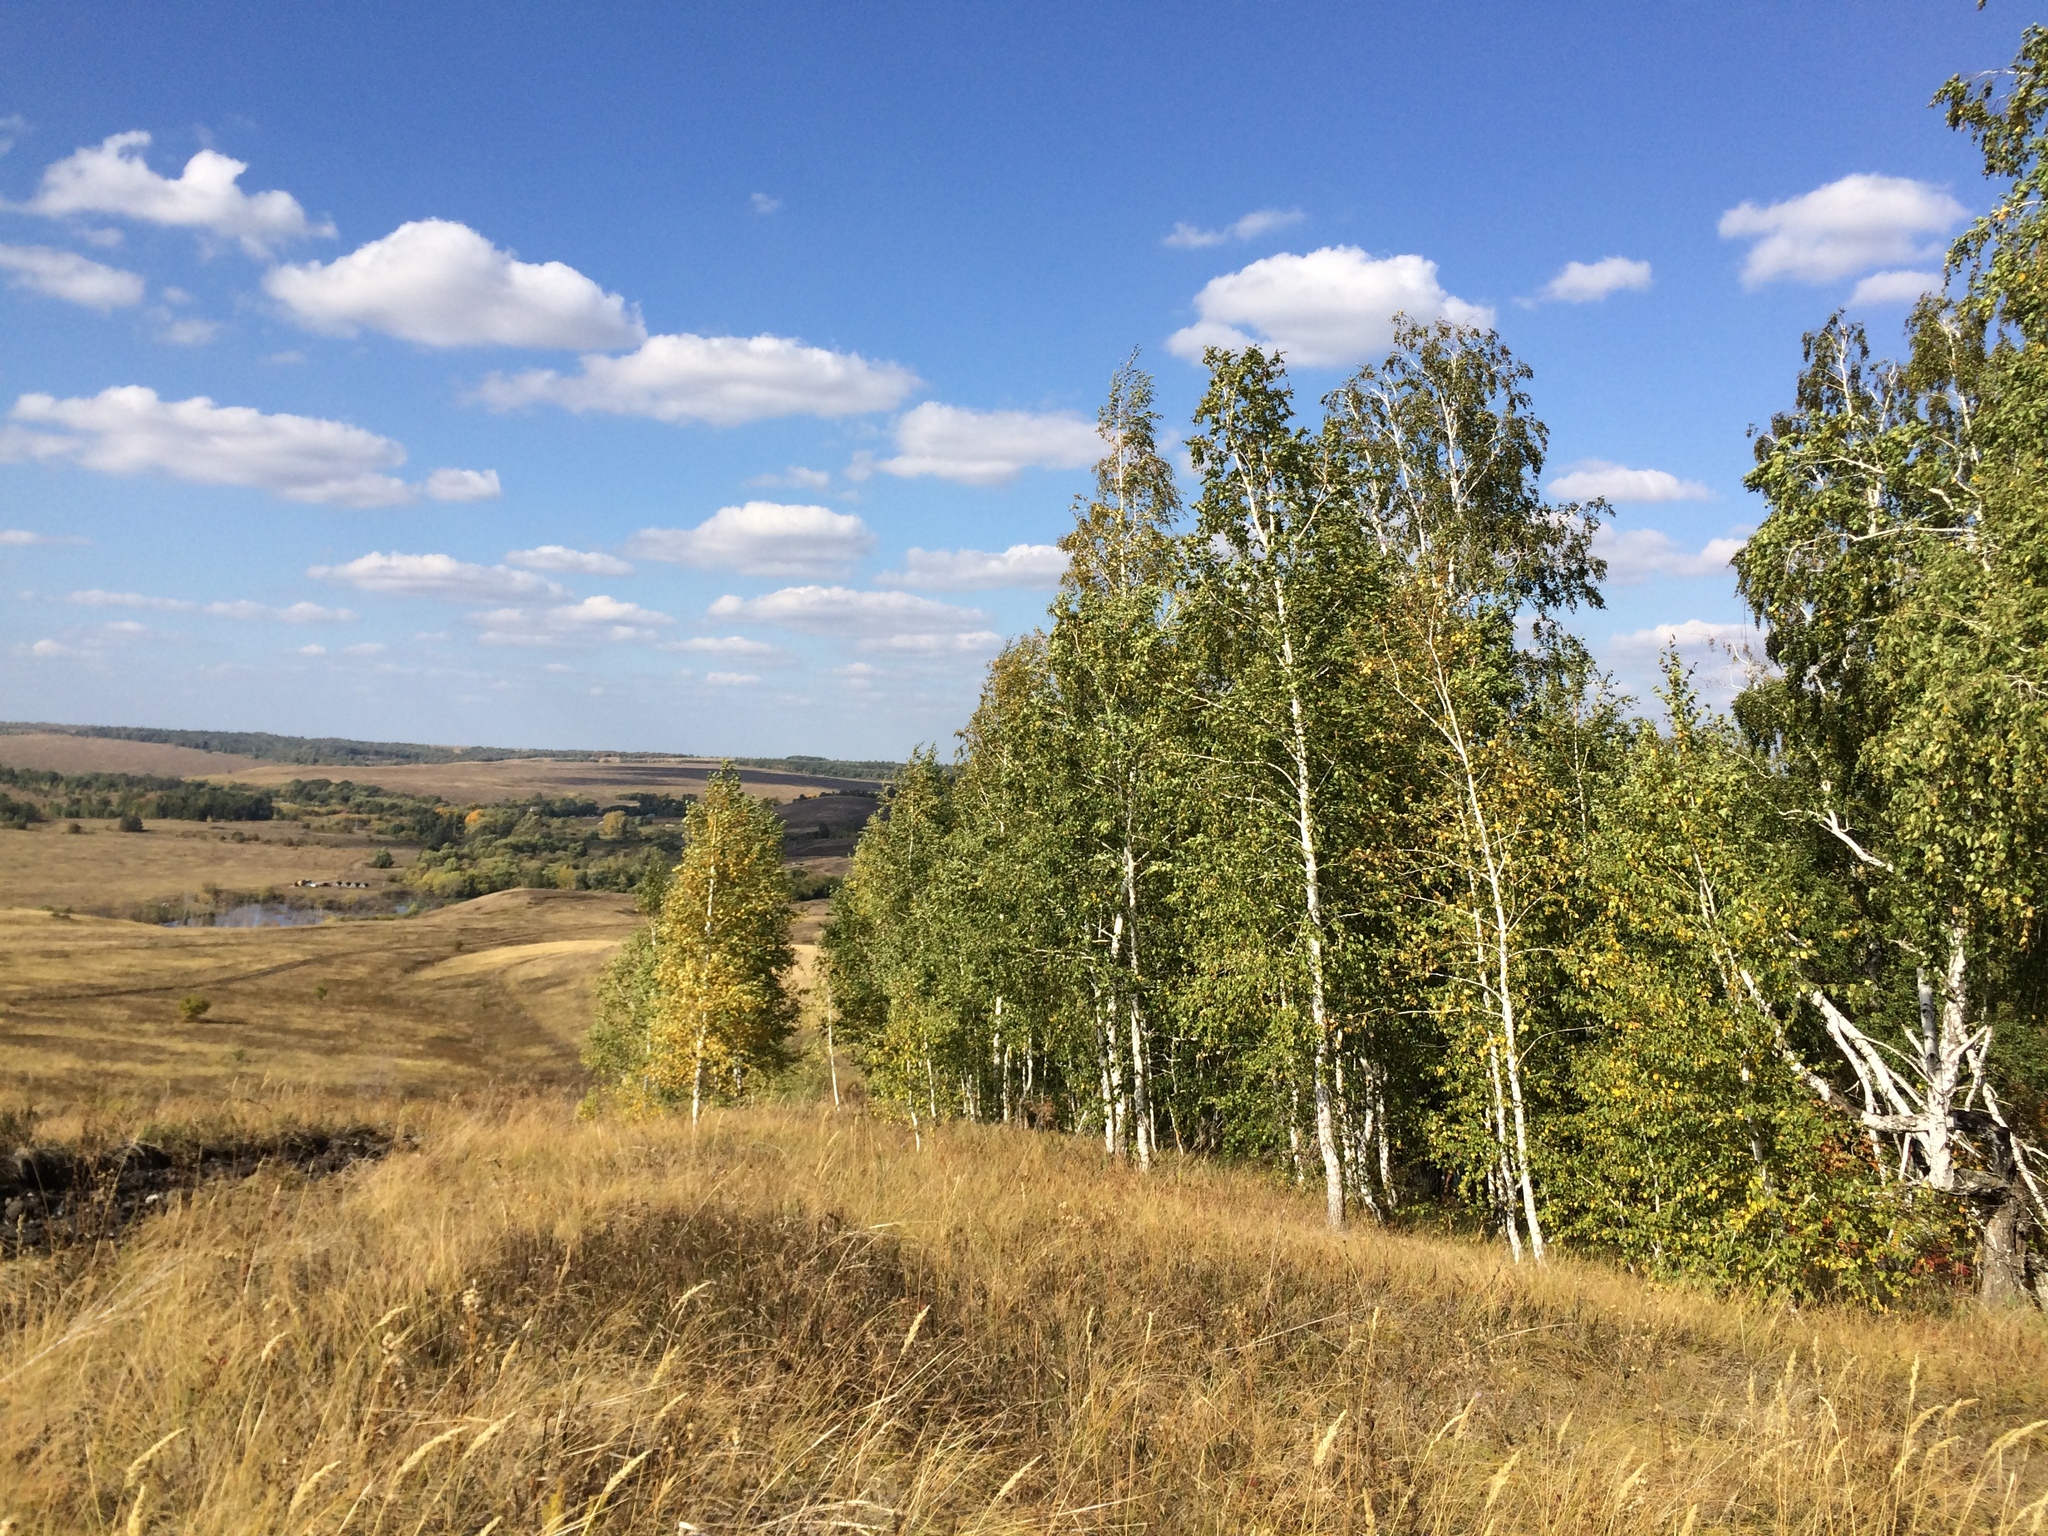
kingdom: Plantae
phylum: Tracheophyta
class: Magnoliopsida
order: Fagales
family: Betulaceae
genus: Betula
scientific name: Betula pendula
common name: Silver birch
